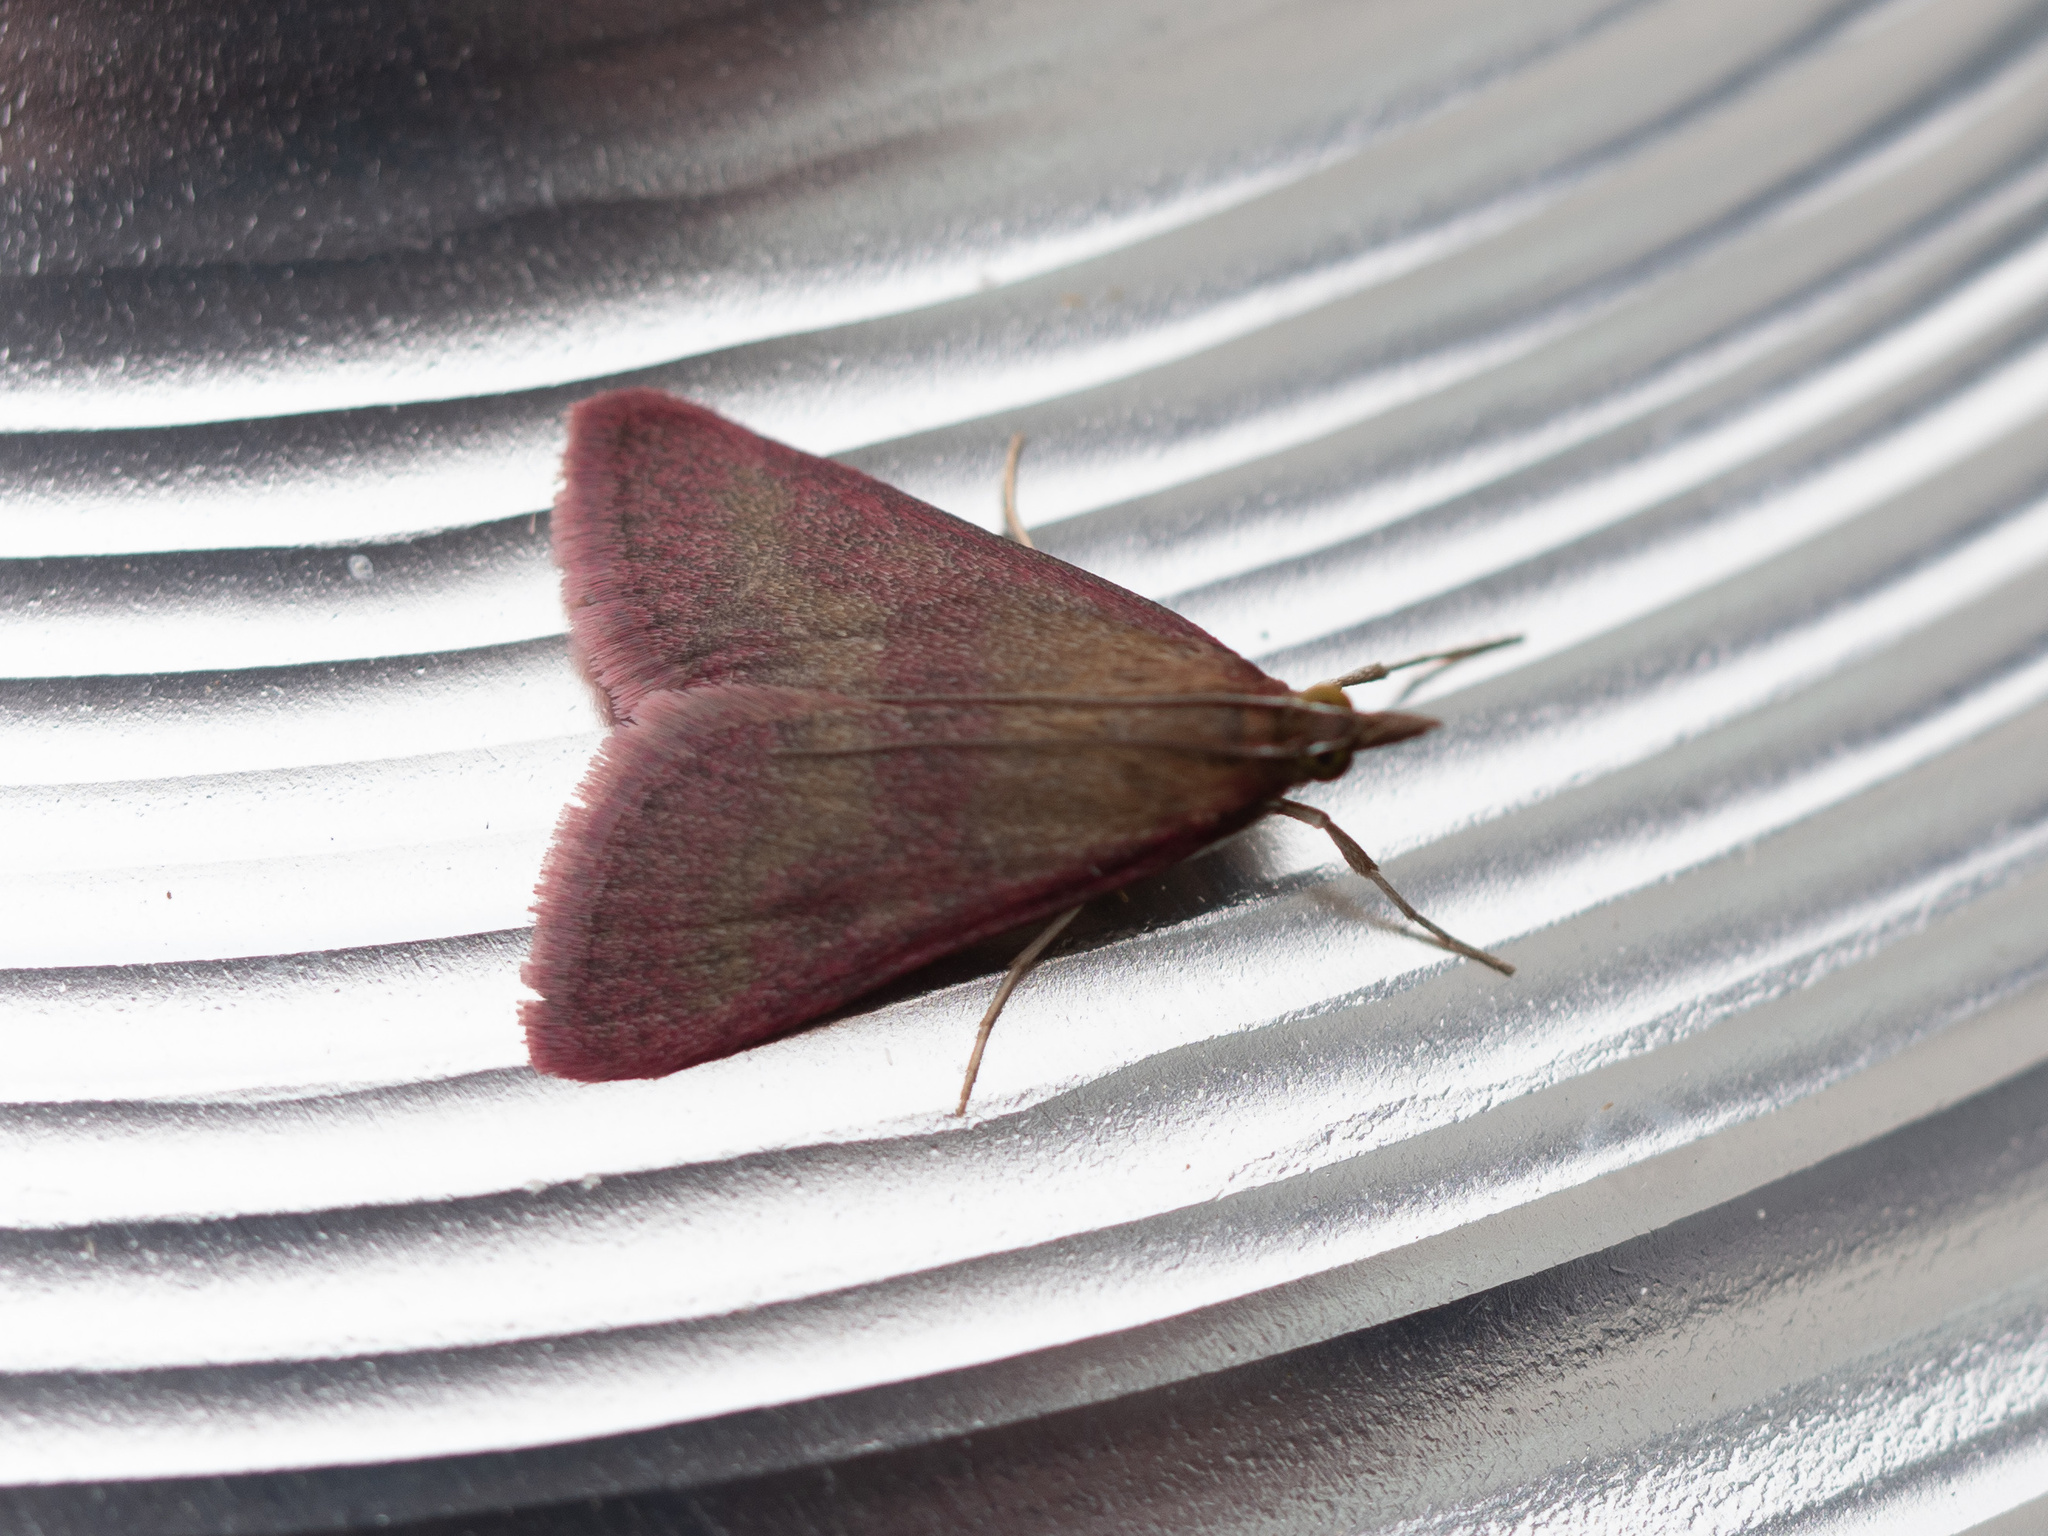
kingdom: Animalia
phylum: Arthropoda
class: Insecta
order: Lepidoptera
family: Crambidae
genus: Pyrausta
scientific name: Pyrausta laticlavia
